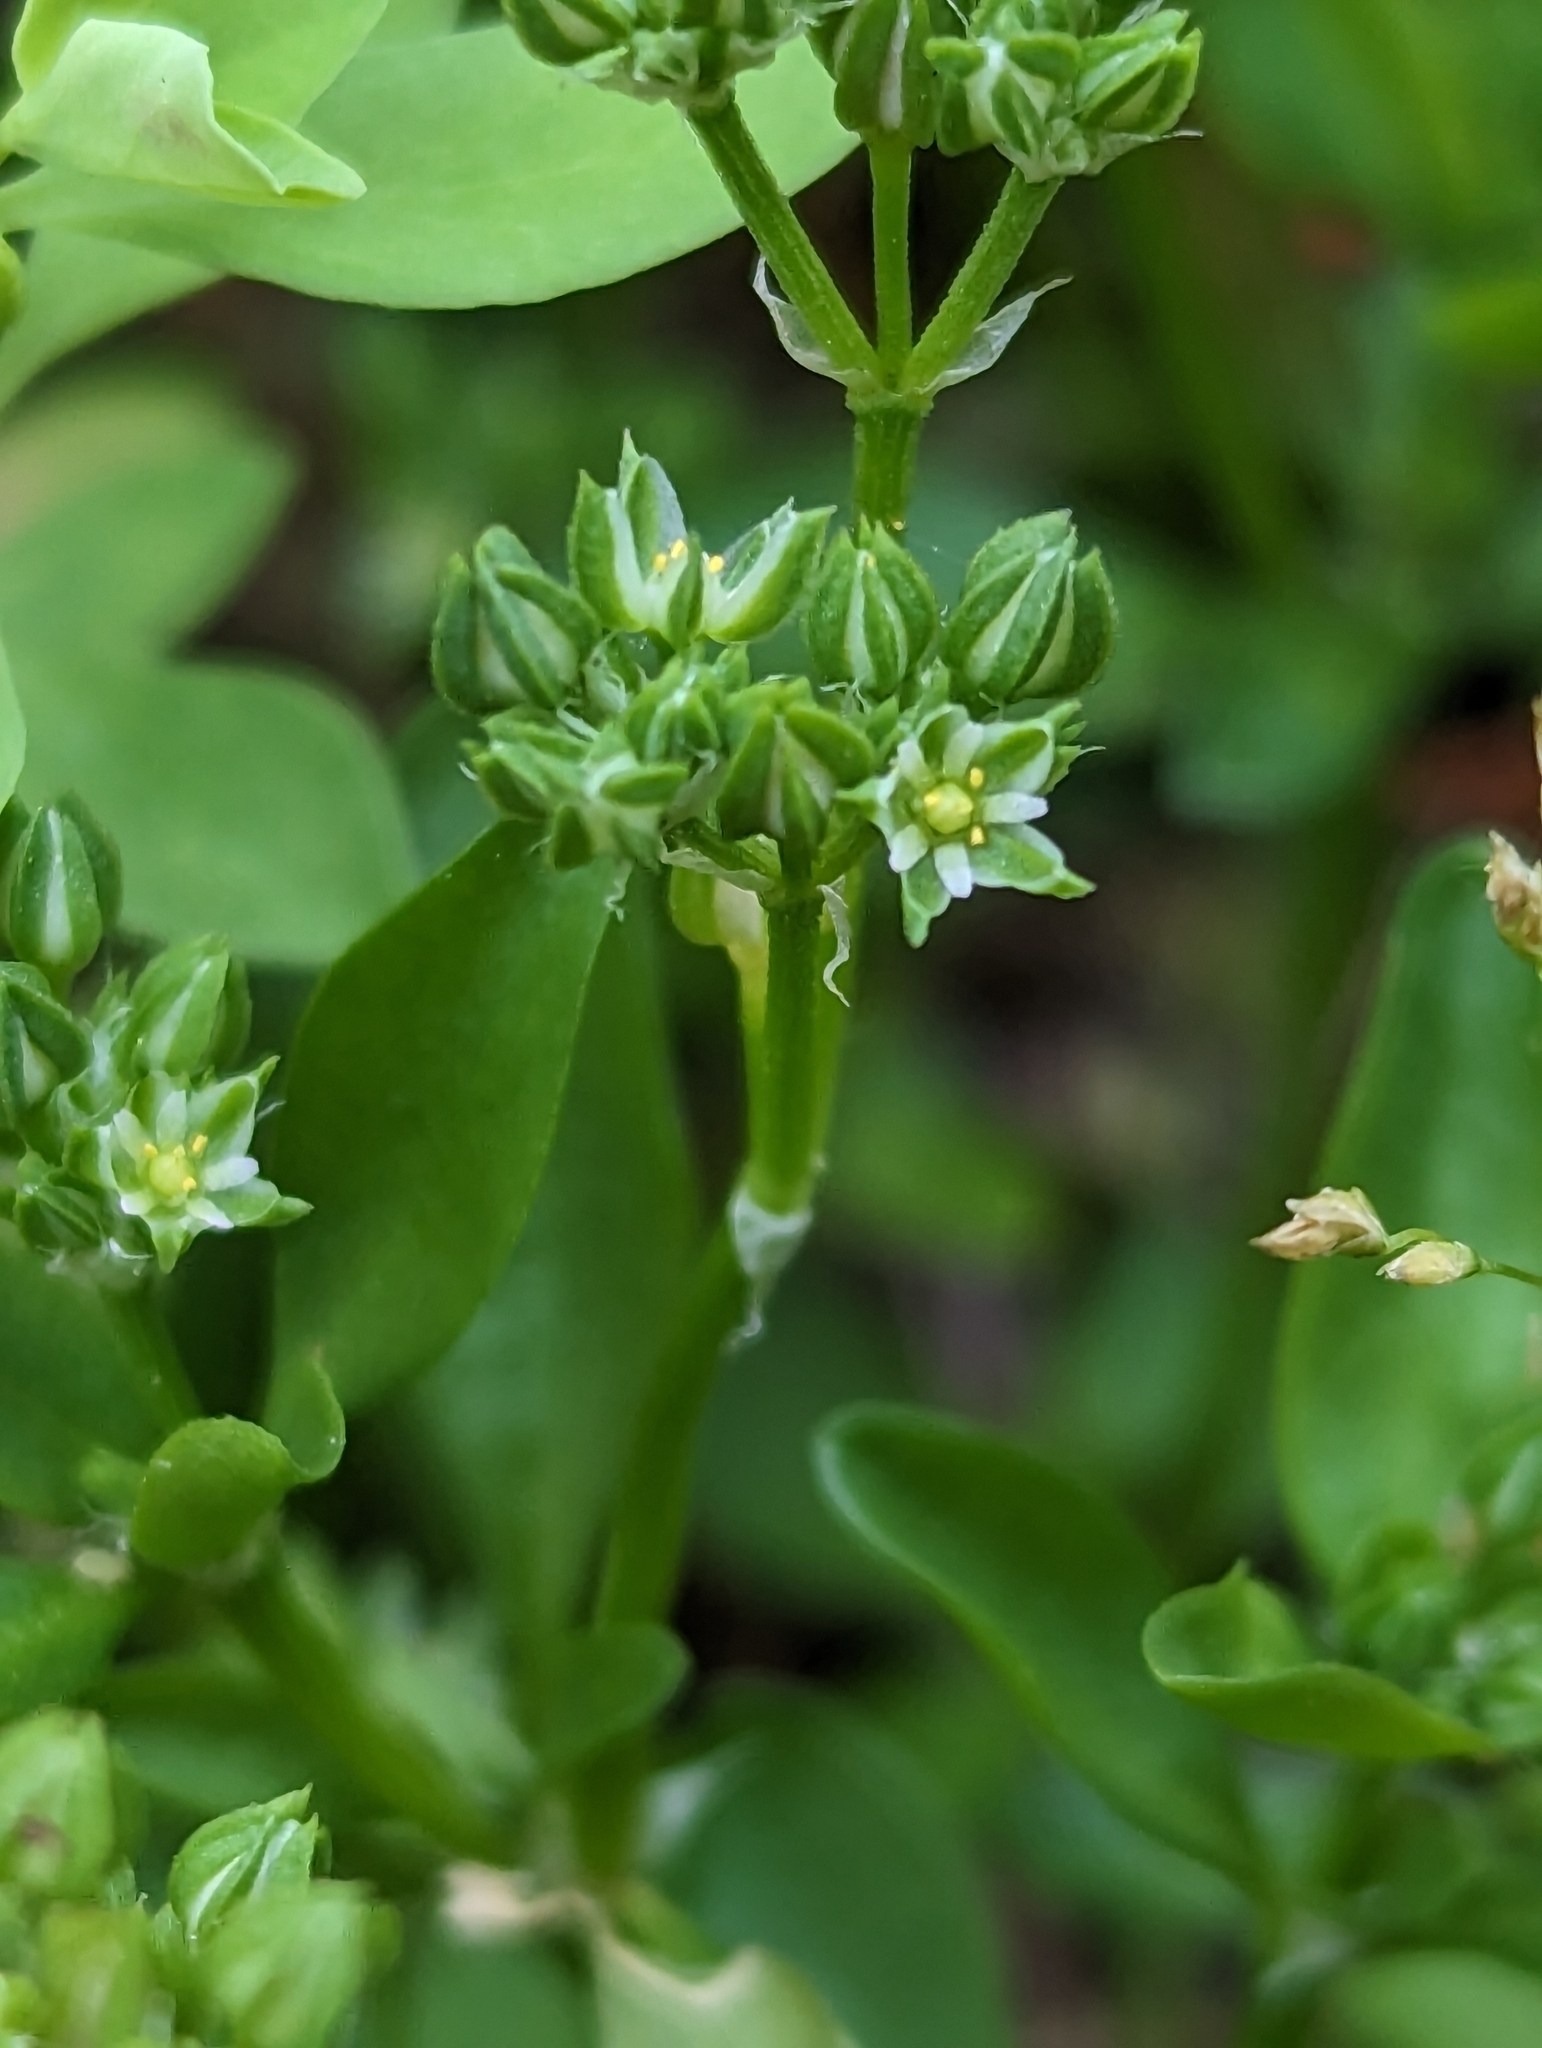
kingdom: Plantae
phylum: Tracheophyta
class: Magnoliopsida
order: Caryophyllales
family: Caryophyllaceae
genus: Polycarpon
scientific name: Polycarpon tetraphyllum
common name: Four-leaved all-seed
